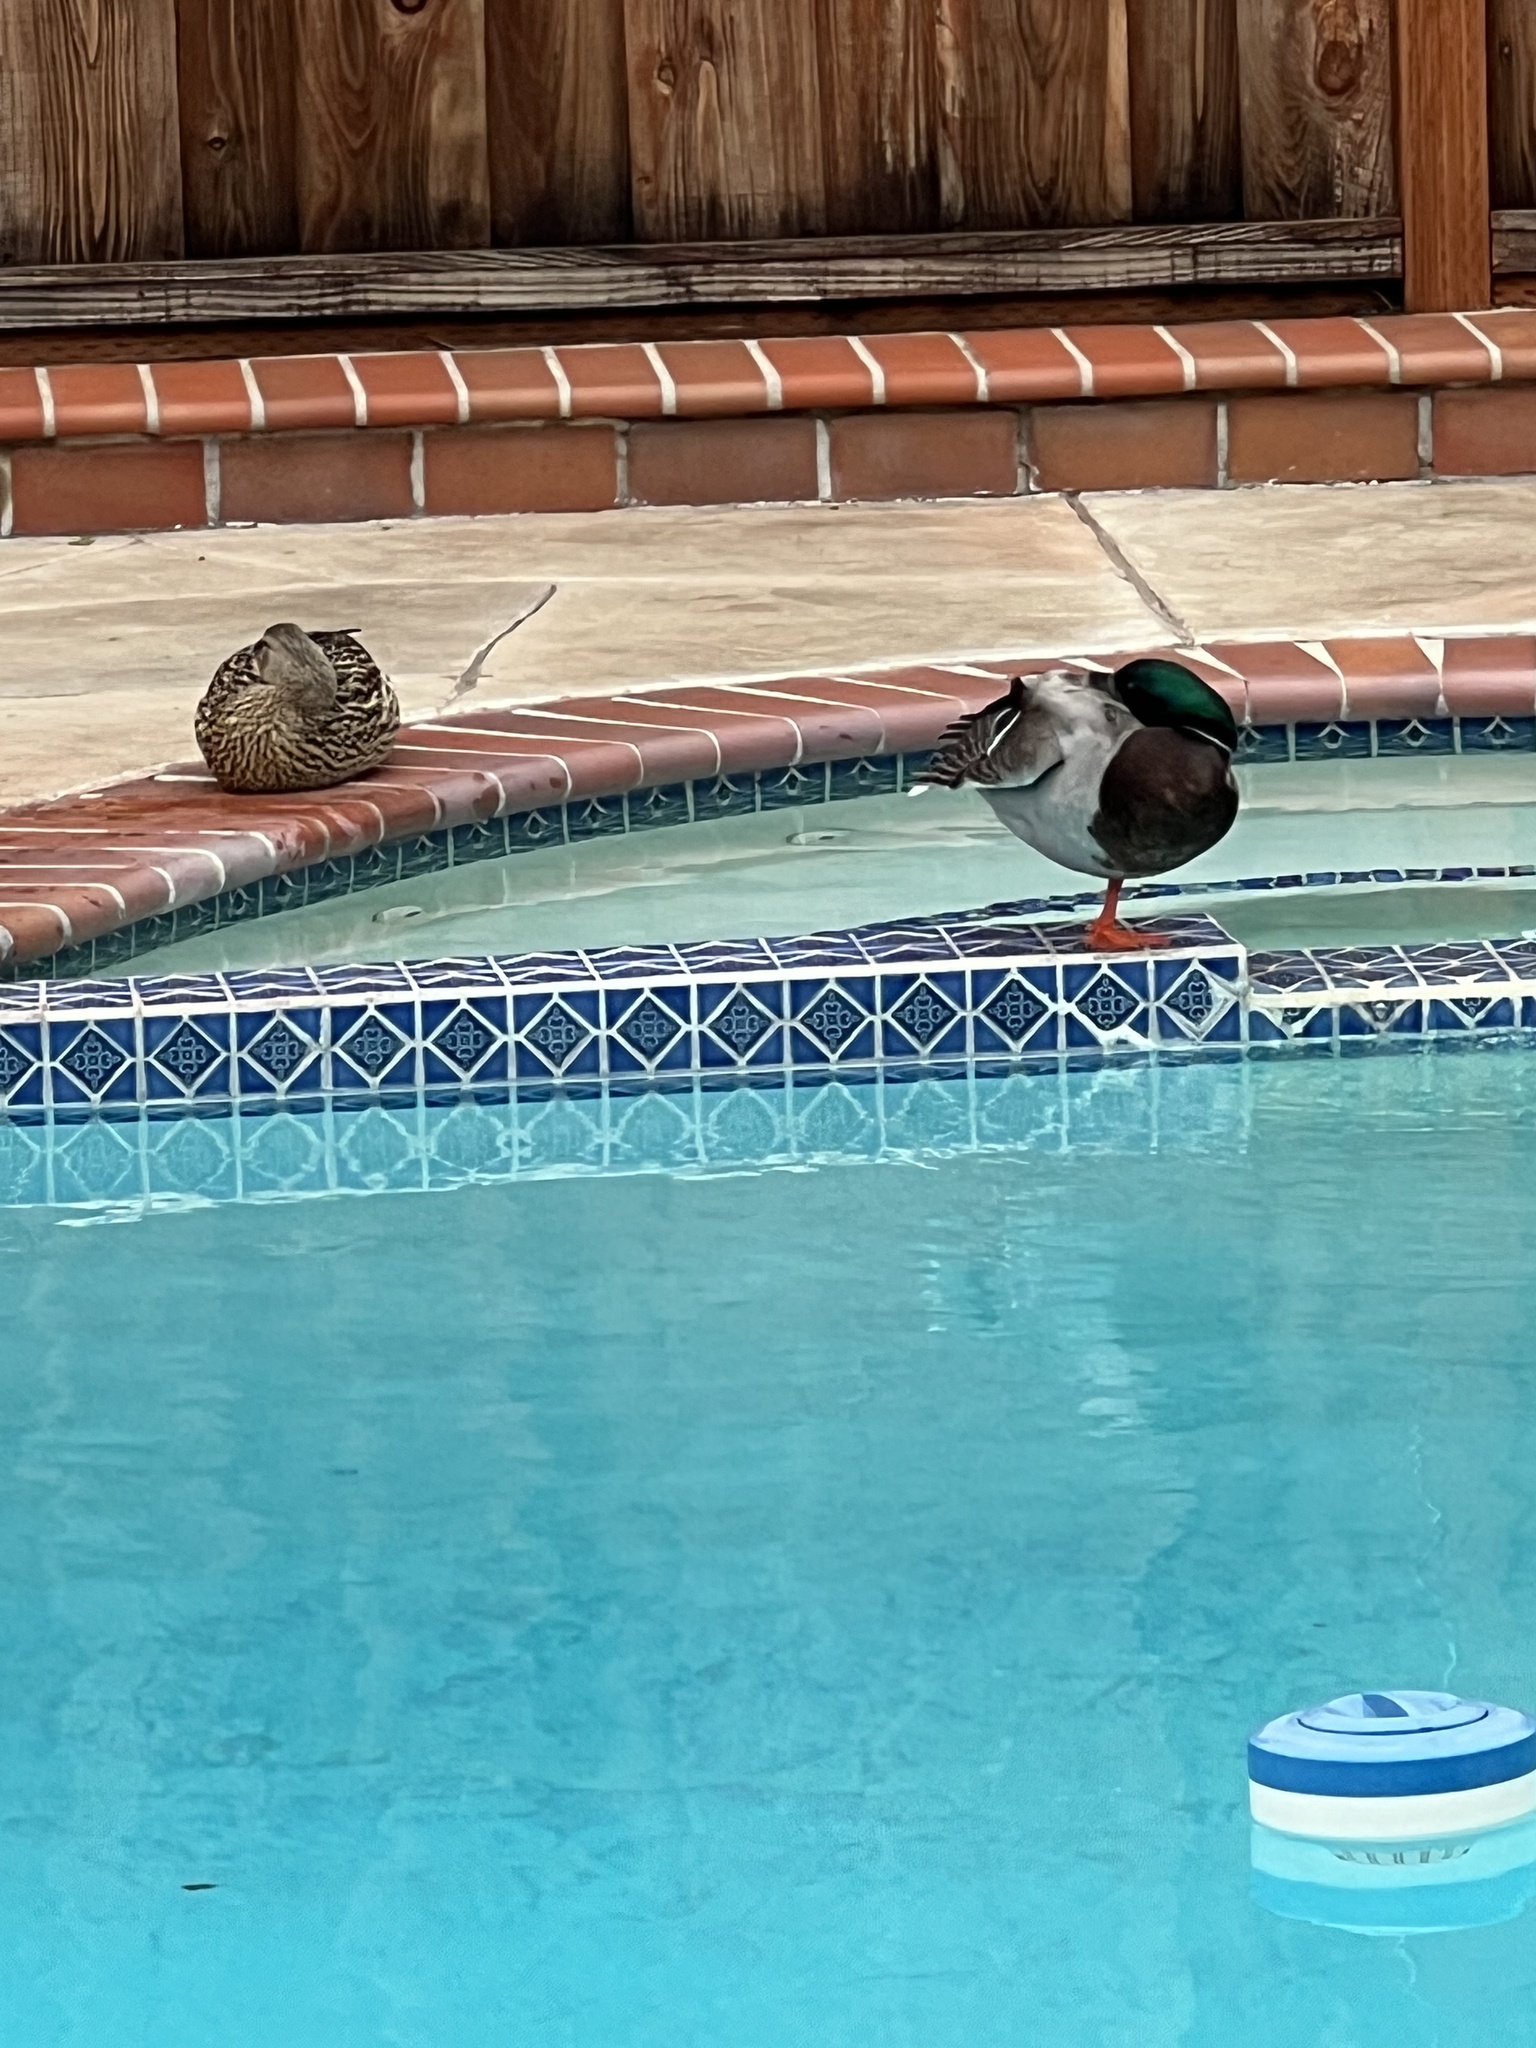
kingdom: Animalia
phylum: Chordata
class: Aves
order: Anseriformes
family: Anatidae
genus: Anas
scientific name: Anas platyrhynchos
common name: Mallard
